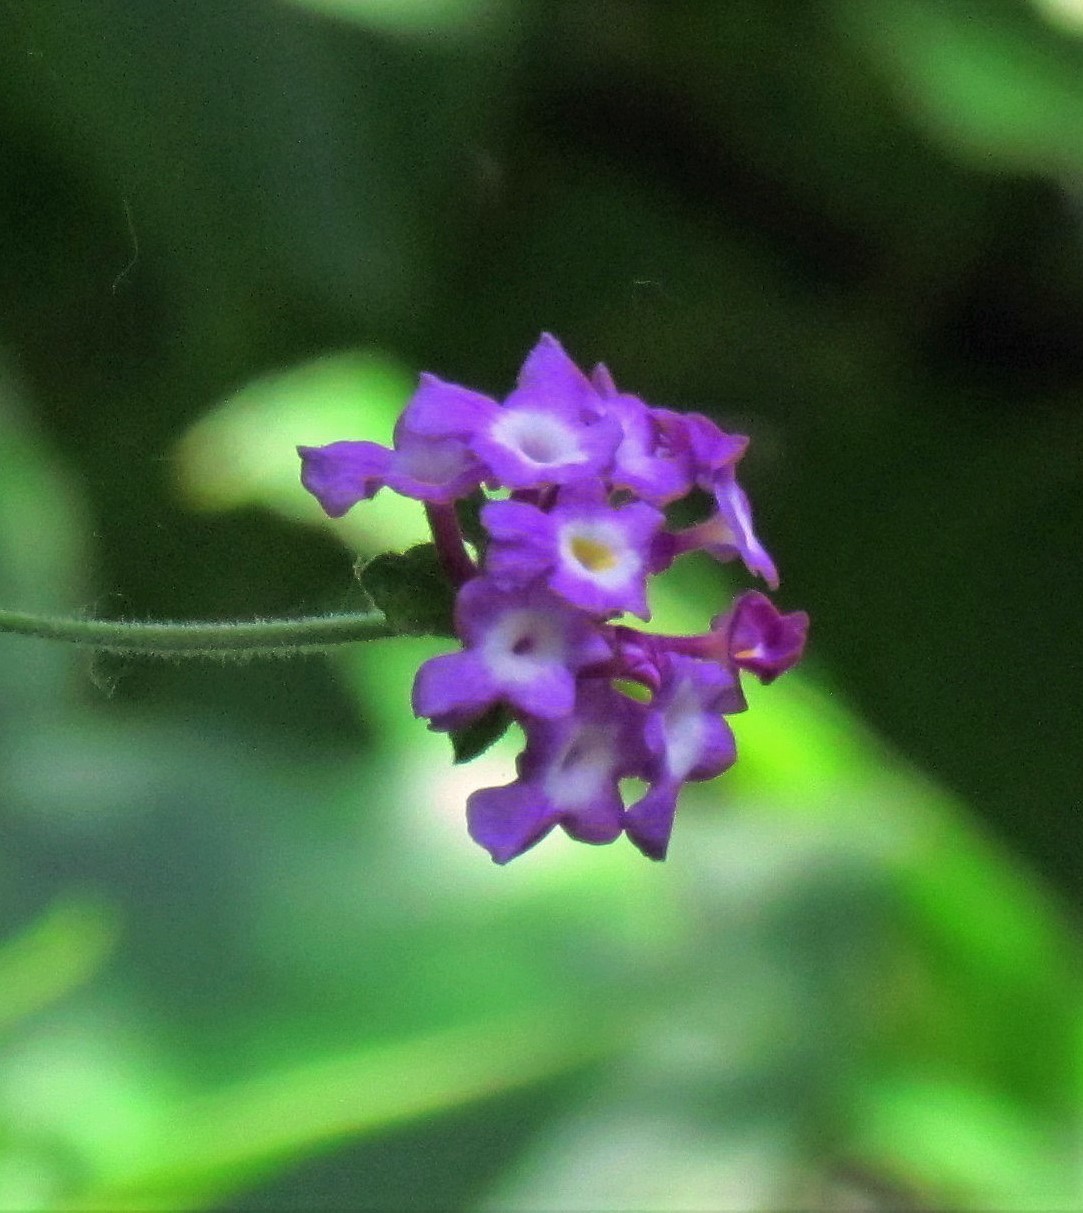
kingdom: Plantae
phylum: Tracheophyta
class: Magnoliopsida
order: Lamiales
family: Verbenaceae
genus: Lantana
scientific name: Lantana megapotamica
